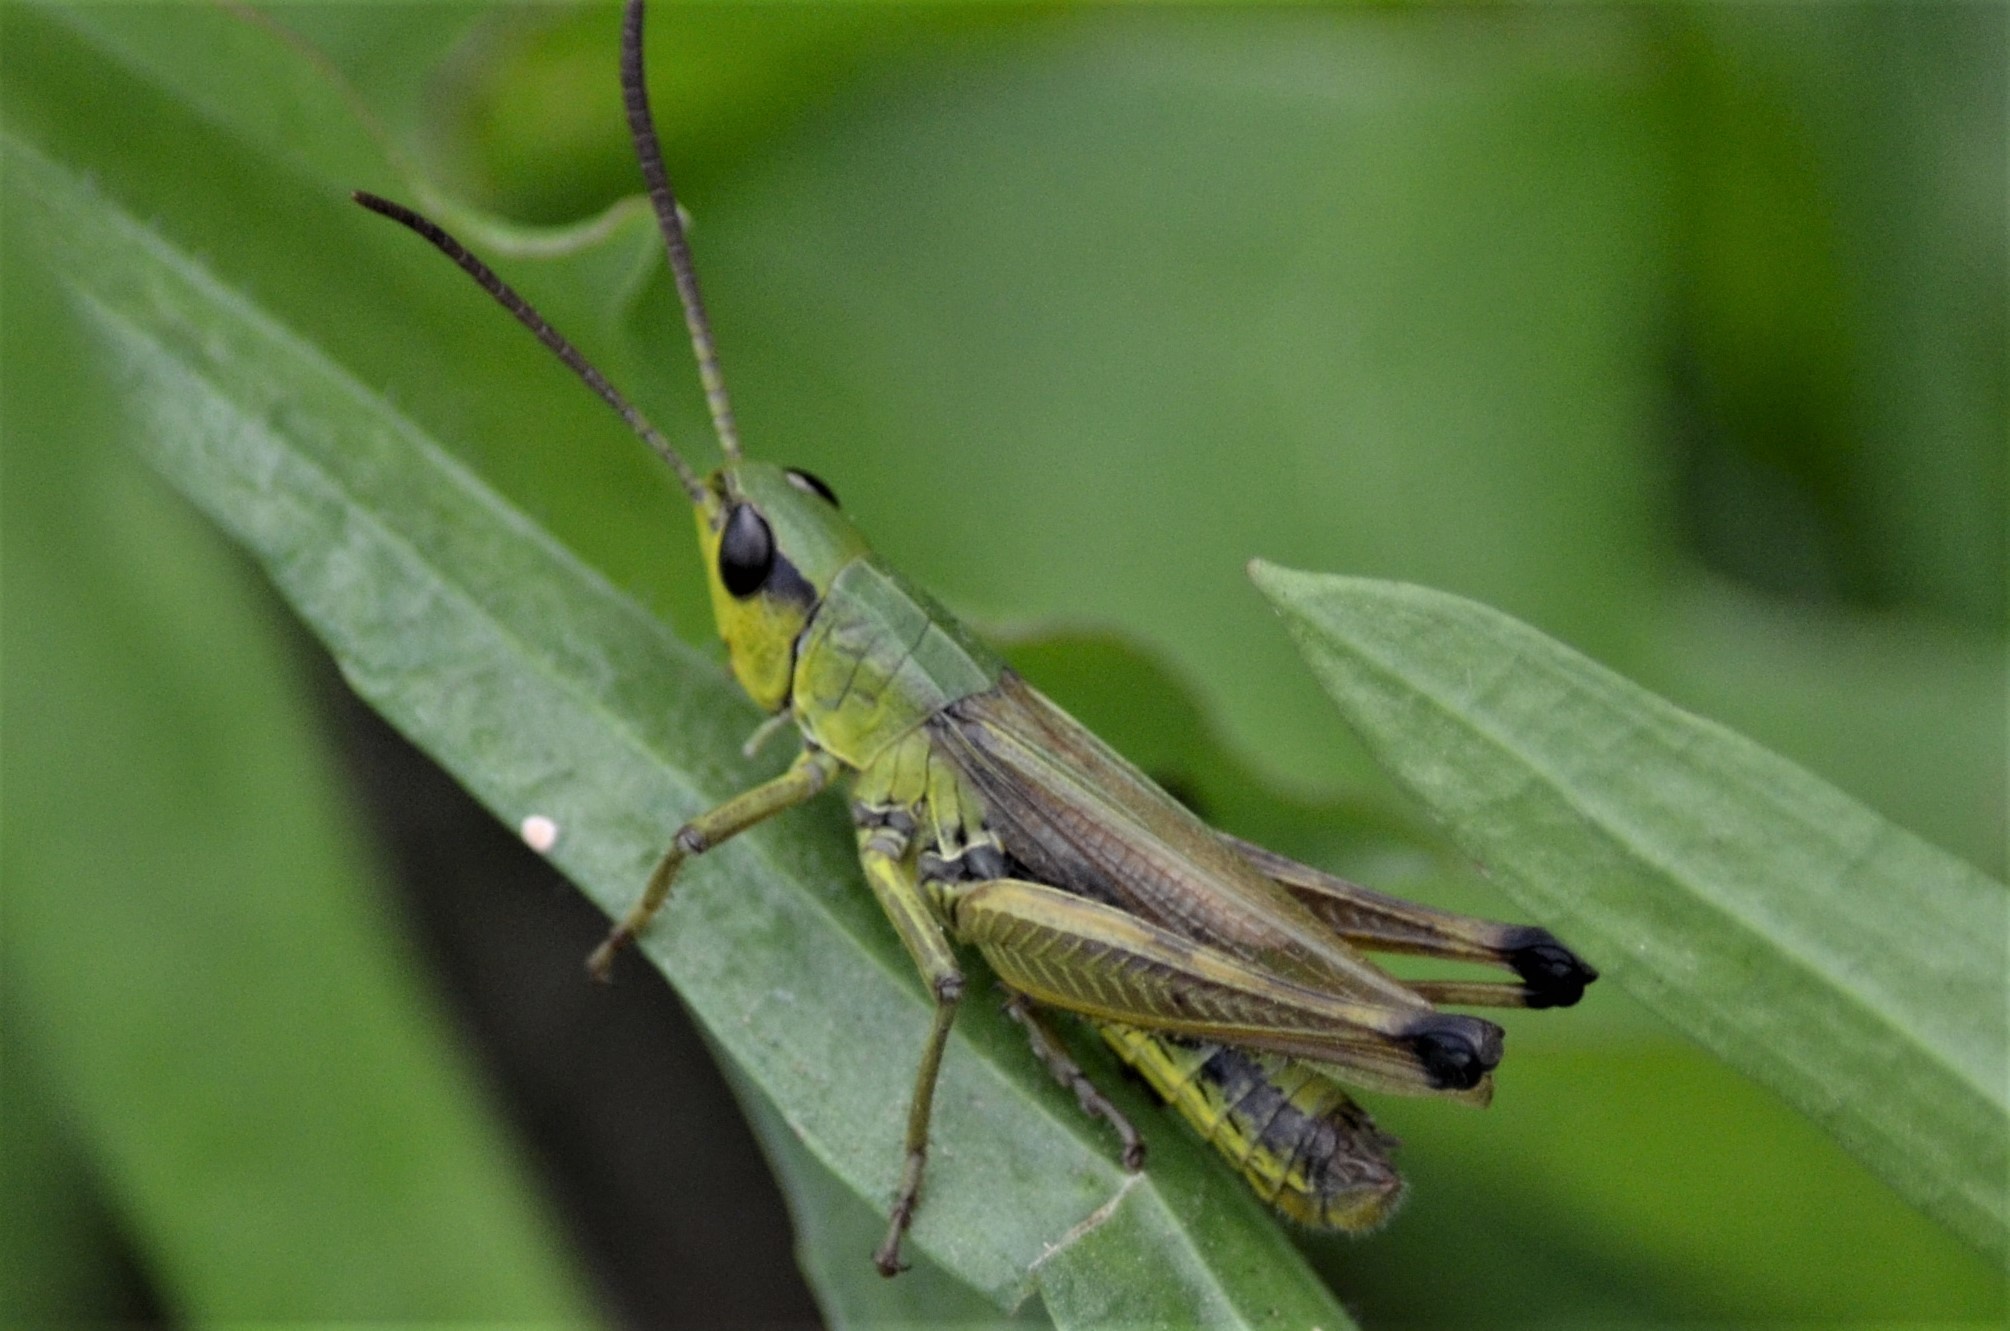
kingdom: Animalia
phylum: Arthropoda
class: Insecta
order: Orthoptera
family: Acrididae
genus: Pseudochorthippus
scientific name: Pseudochorthippus parallelus
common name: Meadow grasshopper
